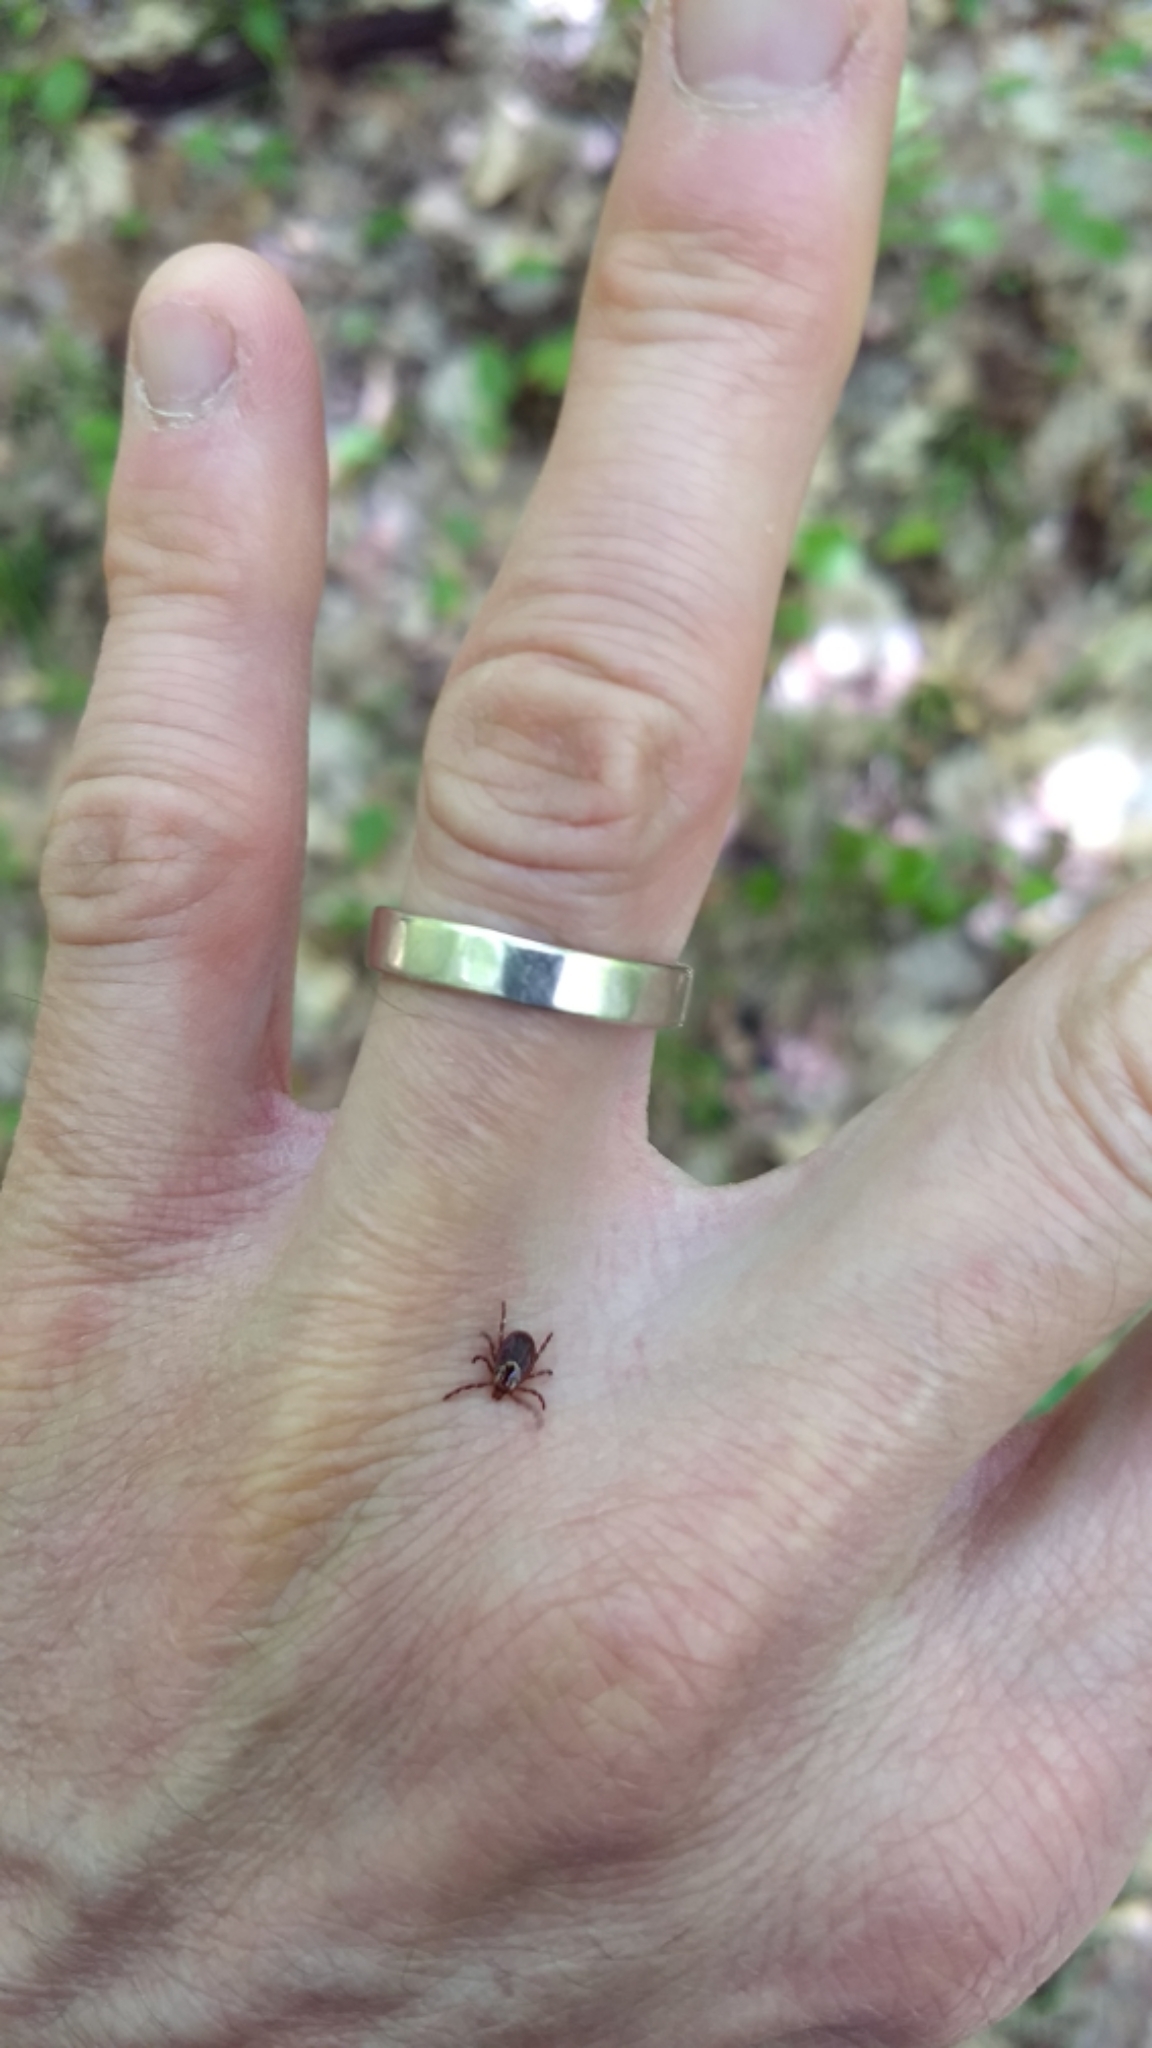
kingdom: Animalia
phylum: Arthropoda
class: Arachnida
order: Ixodida
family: Ixodidae
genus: Dermacentor
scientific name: Dermacentor variabilis
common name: American dog tick
